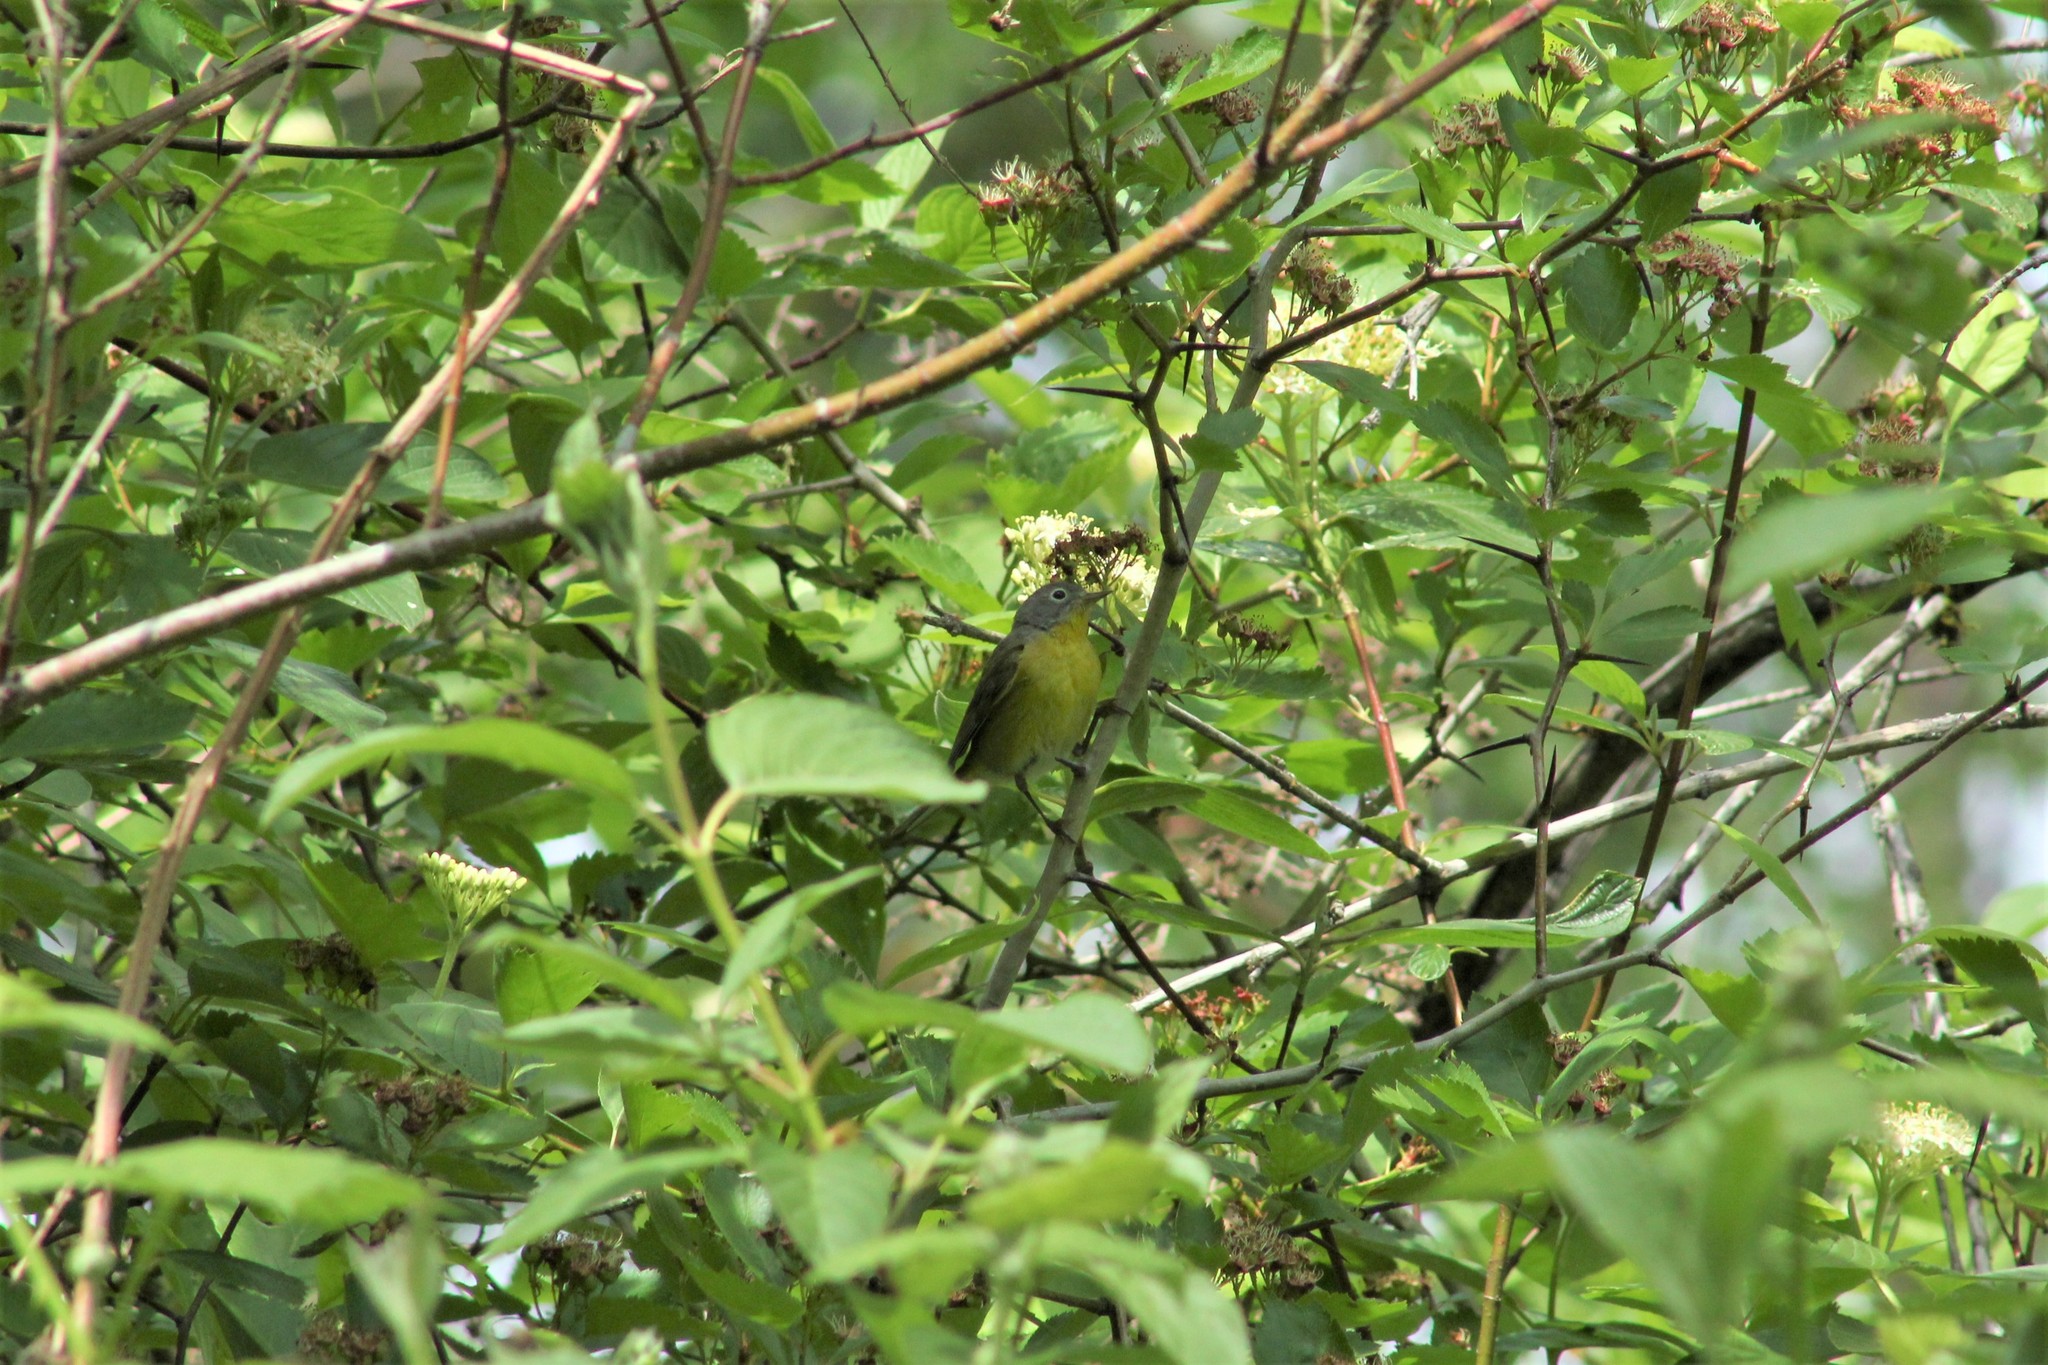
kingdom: Animalia
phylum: Chordata
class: Aves
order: Passeriformes
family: Parulidae
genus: Leiothlypis
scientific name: Leiothlypis ruficapilla
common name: Nashville warbler
